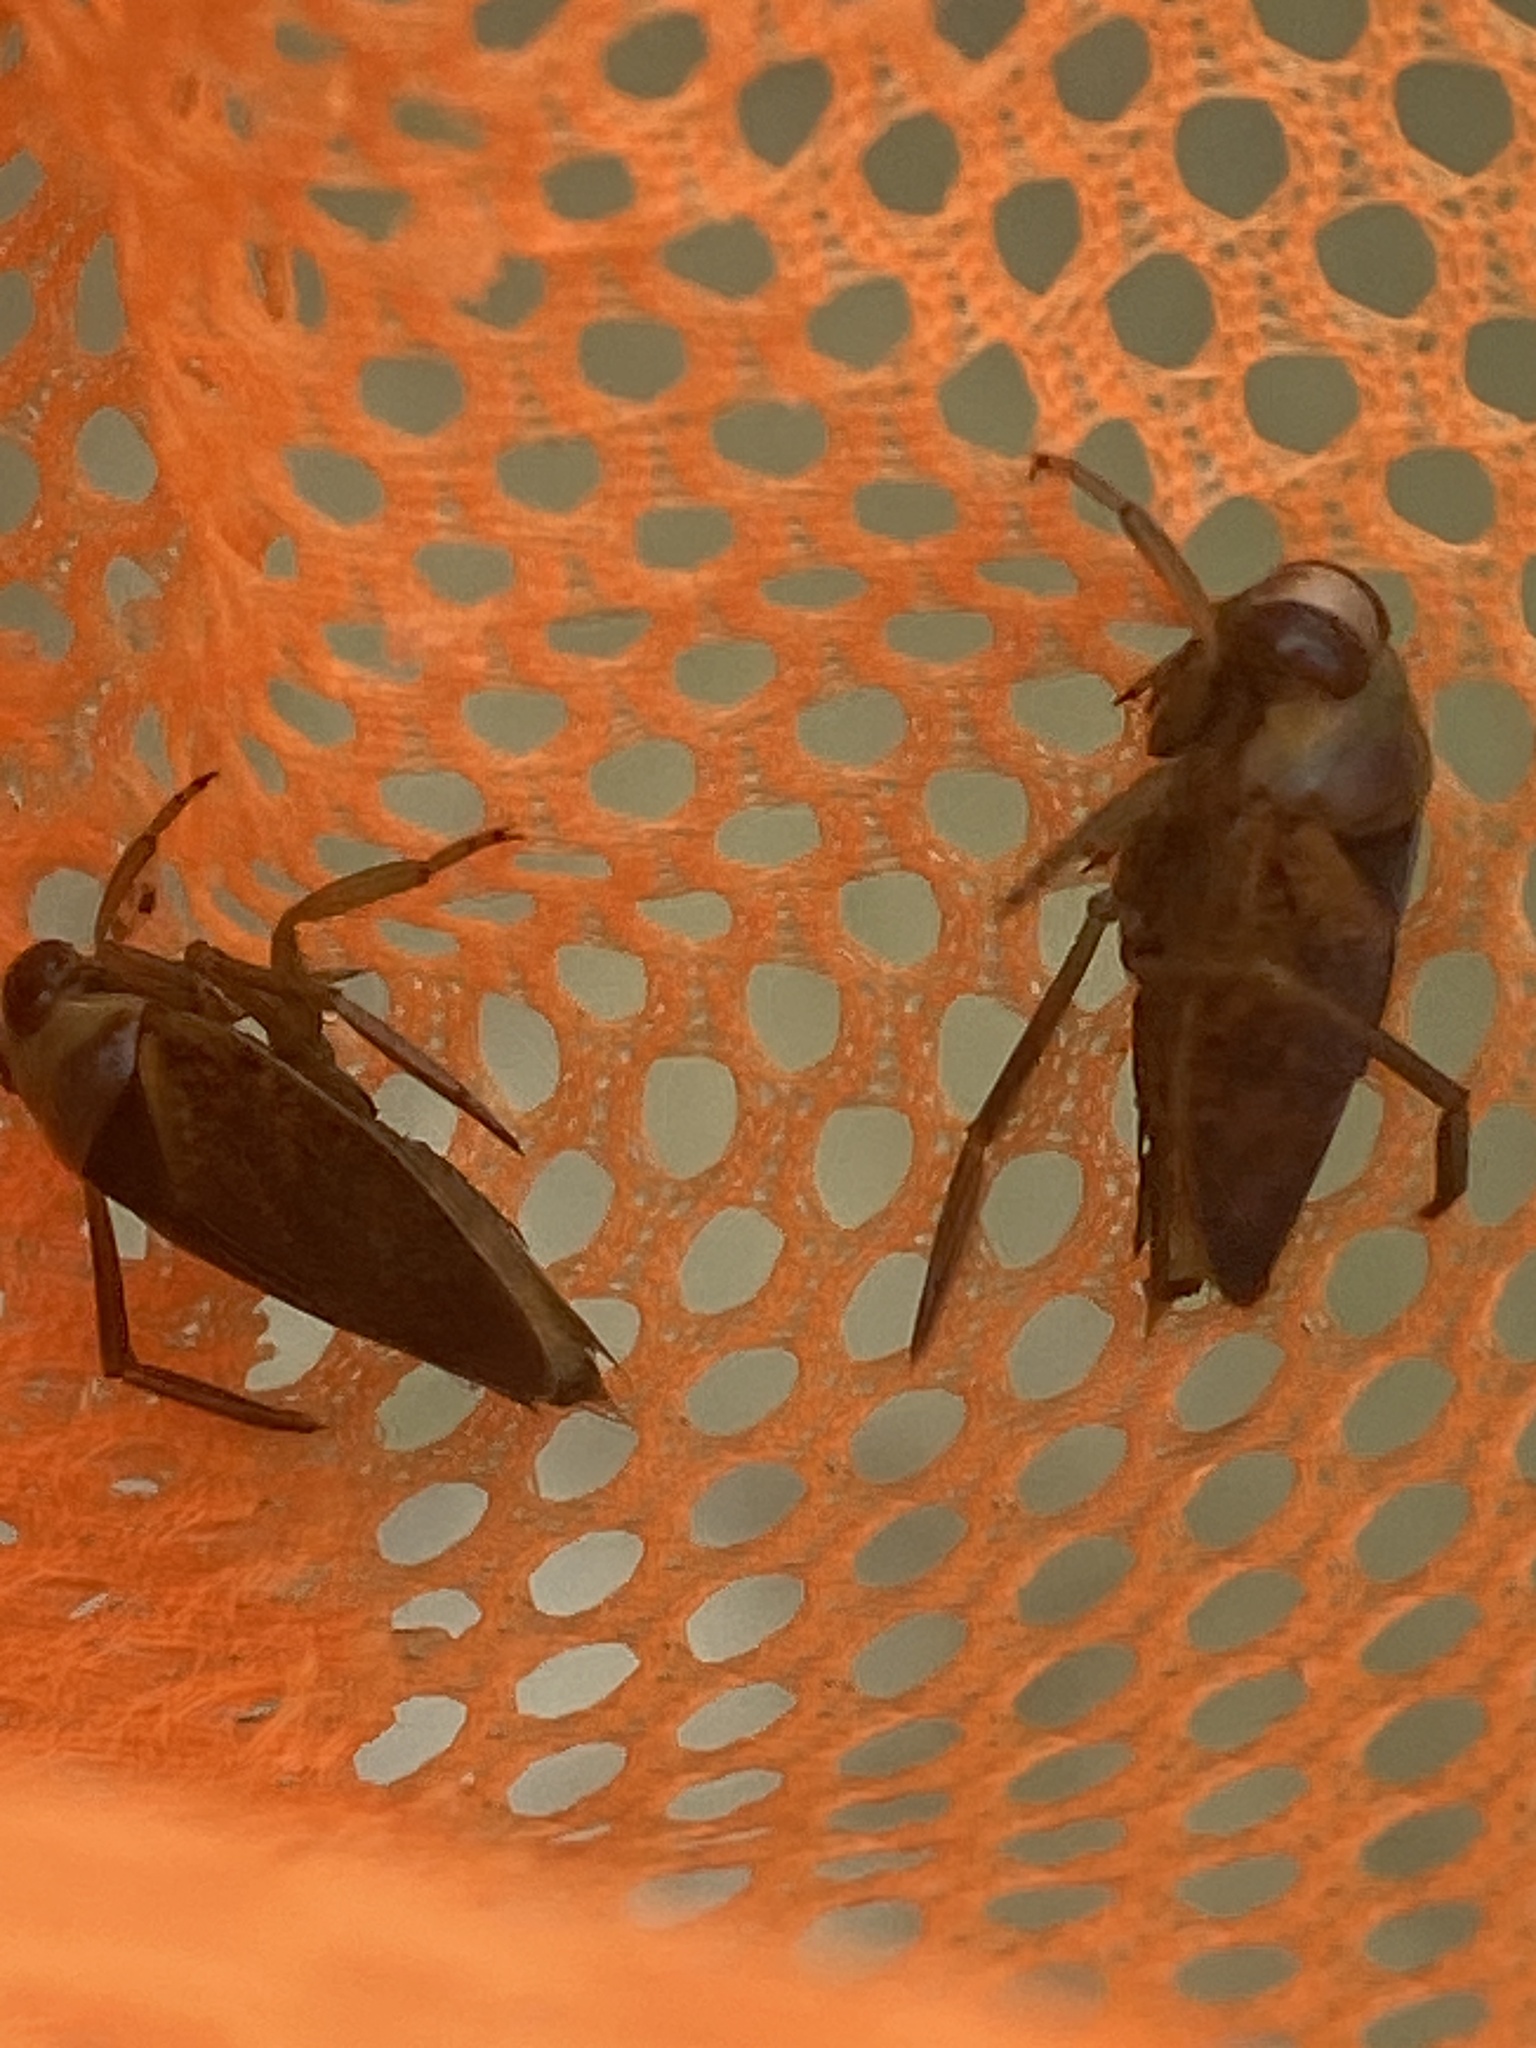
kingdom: Animalia
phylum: Arthropoda
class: Insecta
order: Hemiptera
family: Notonectidae
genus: Notonecta
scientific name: Notonecta maculata
